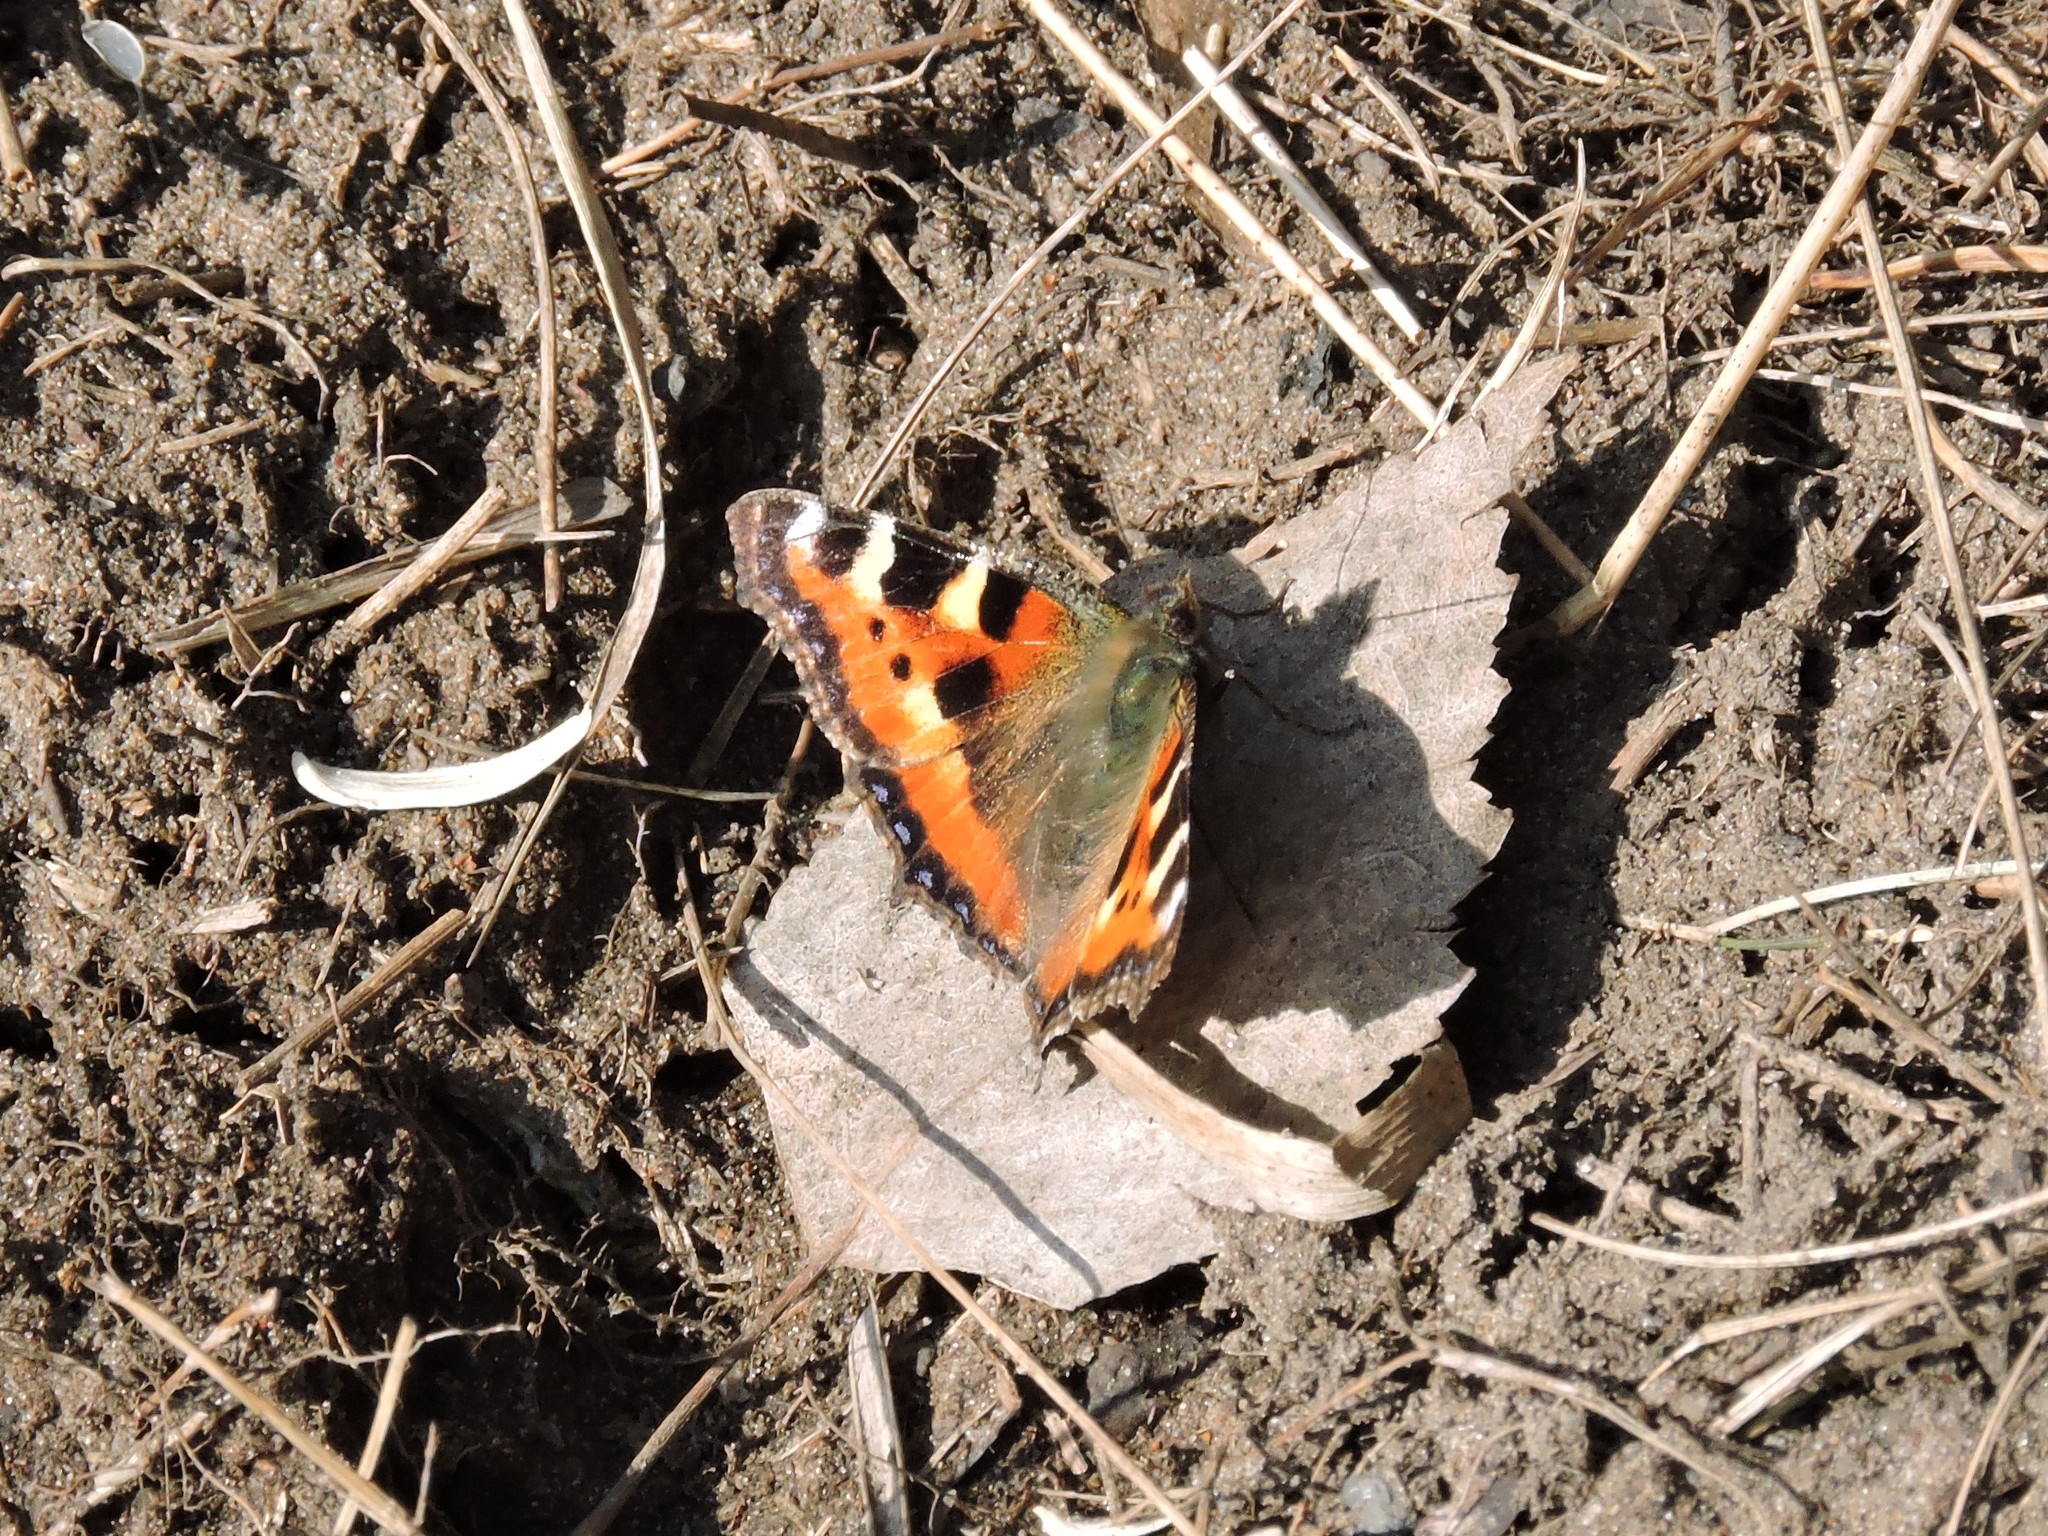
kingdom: Animalia
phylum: Arthropoda
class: Insecta
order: Lepidoptera
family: Nymphalidae
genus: Aglais
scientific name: Aglais urticae
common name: Small tortoiseshell
